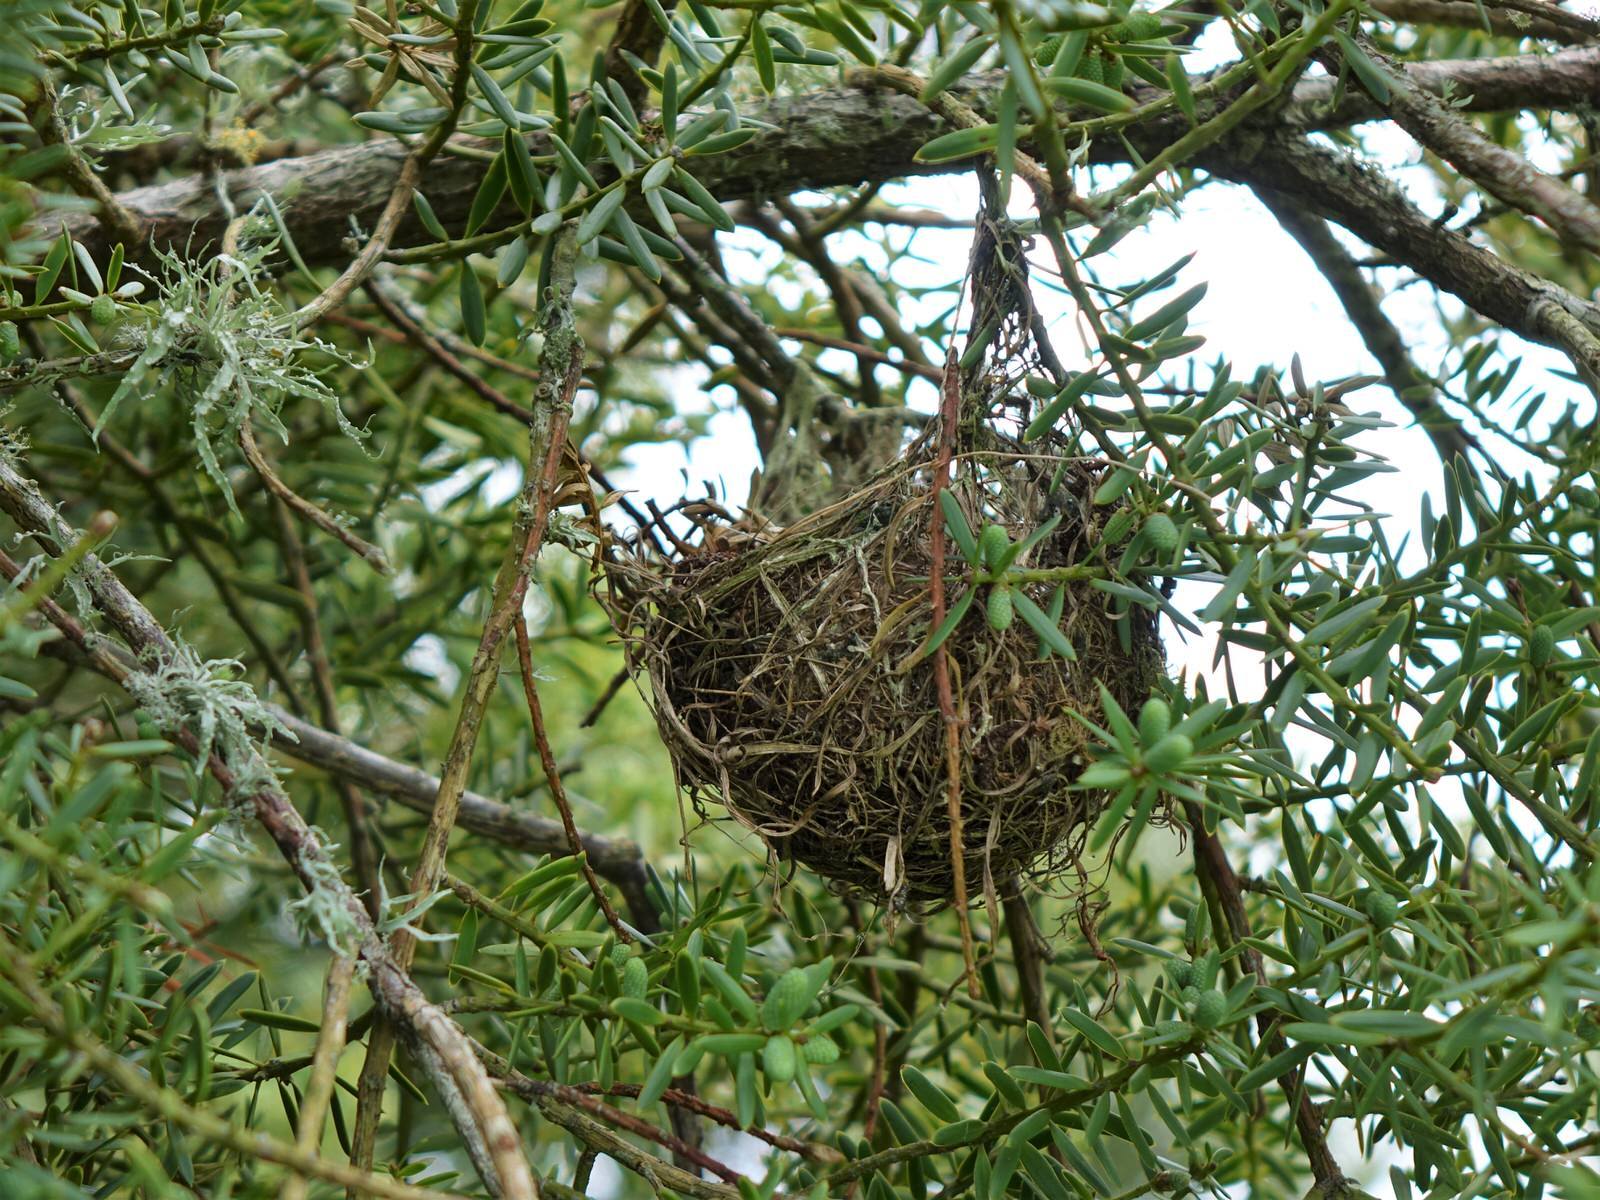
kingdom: Animalia
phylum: Chordata
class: Aves
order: Passeriformes
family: Zosteropidae
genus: Zosterops
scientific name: Zosterops lateralis
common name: Silvereye
